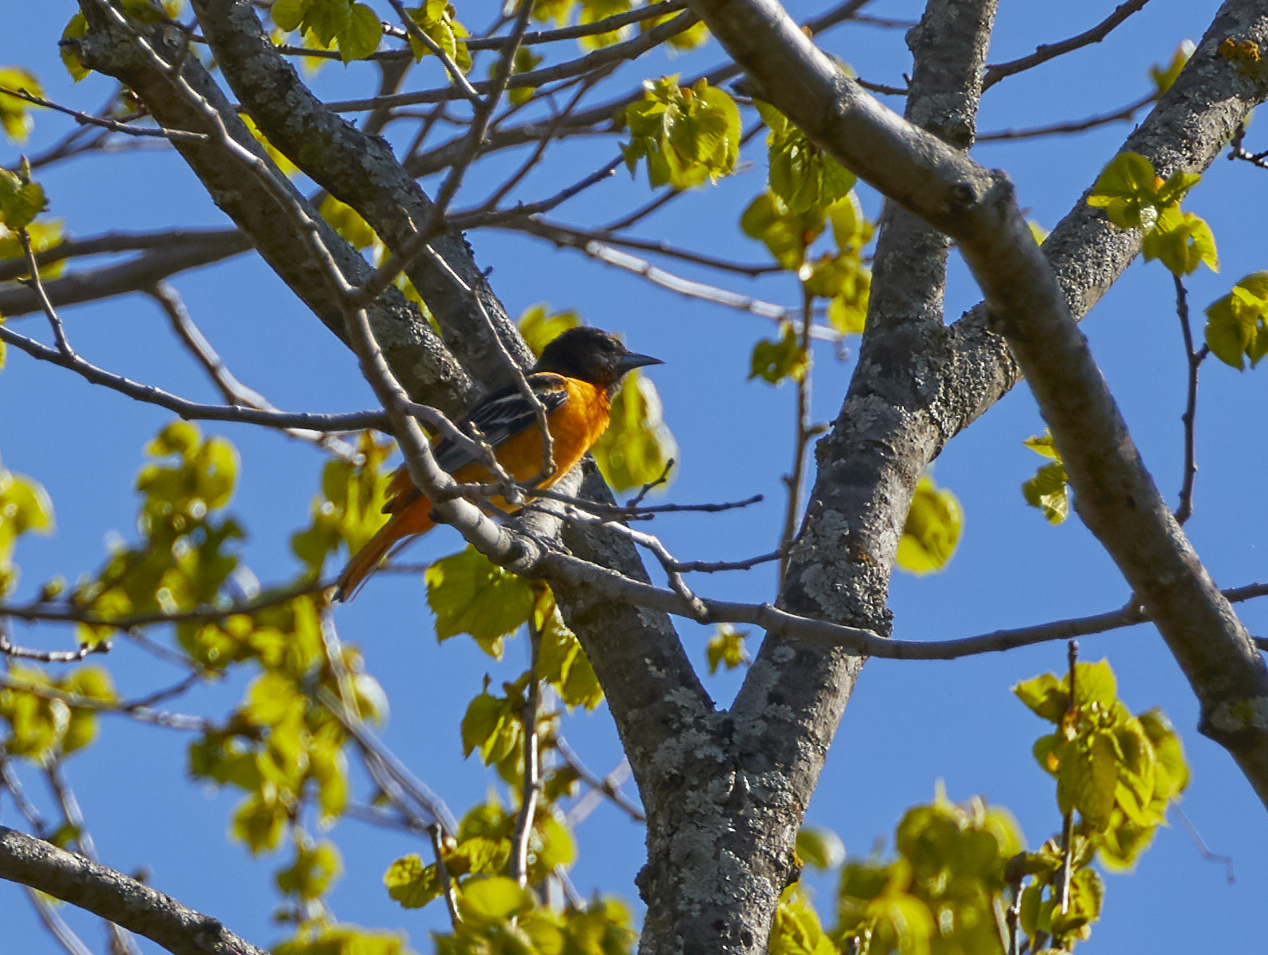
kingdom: Animalia
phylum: Chordata
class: Aves
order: Passeriformes
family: Icteridae
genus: Icterus
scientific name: Icterus galbula
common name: Baltimore oriole
